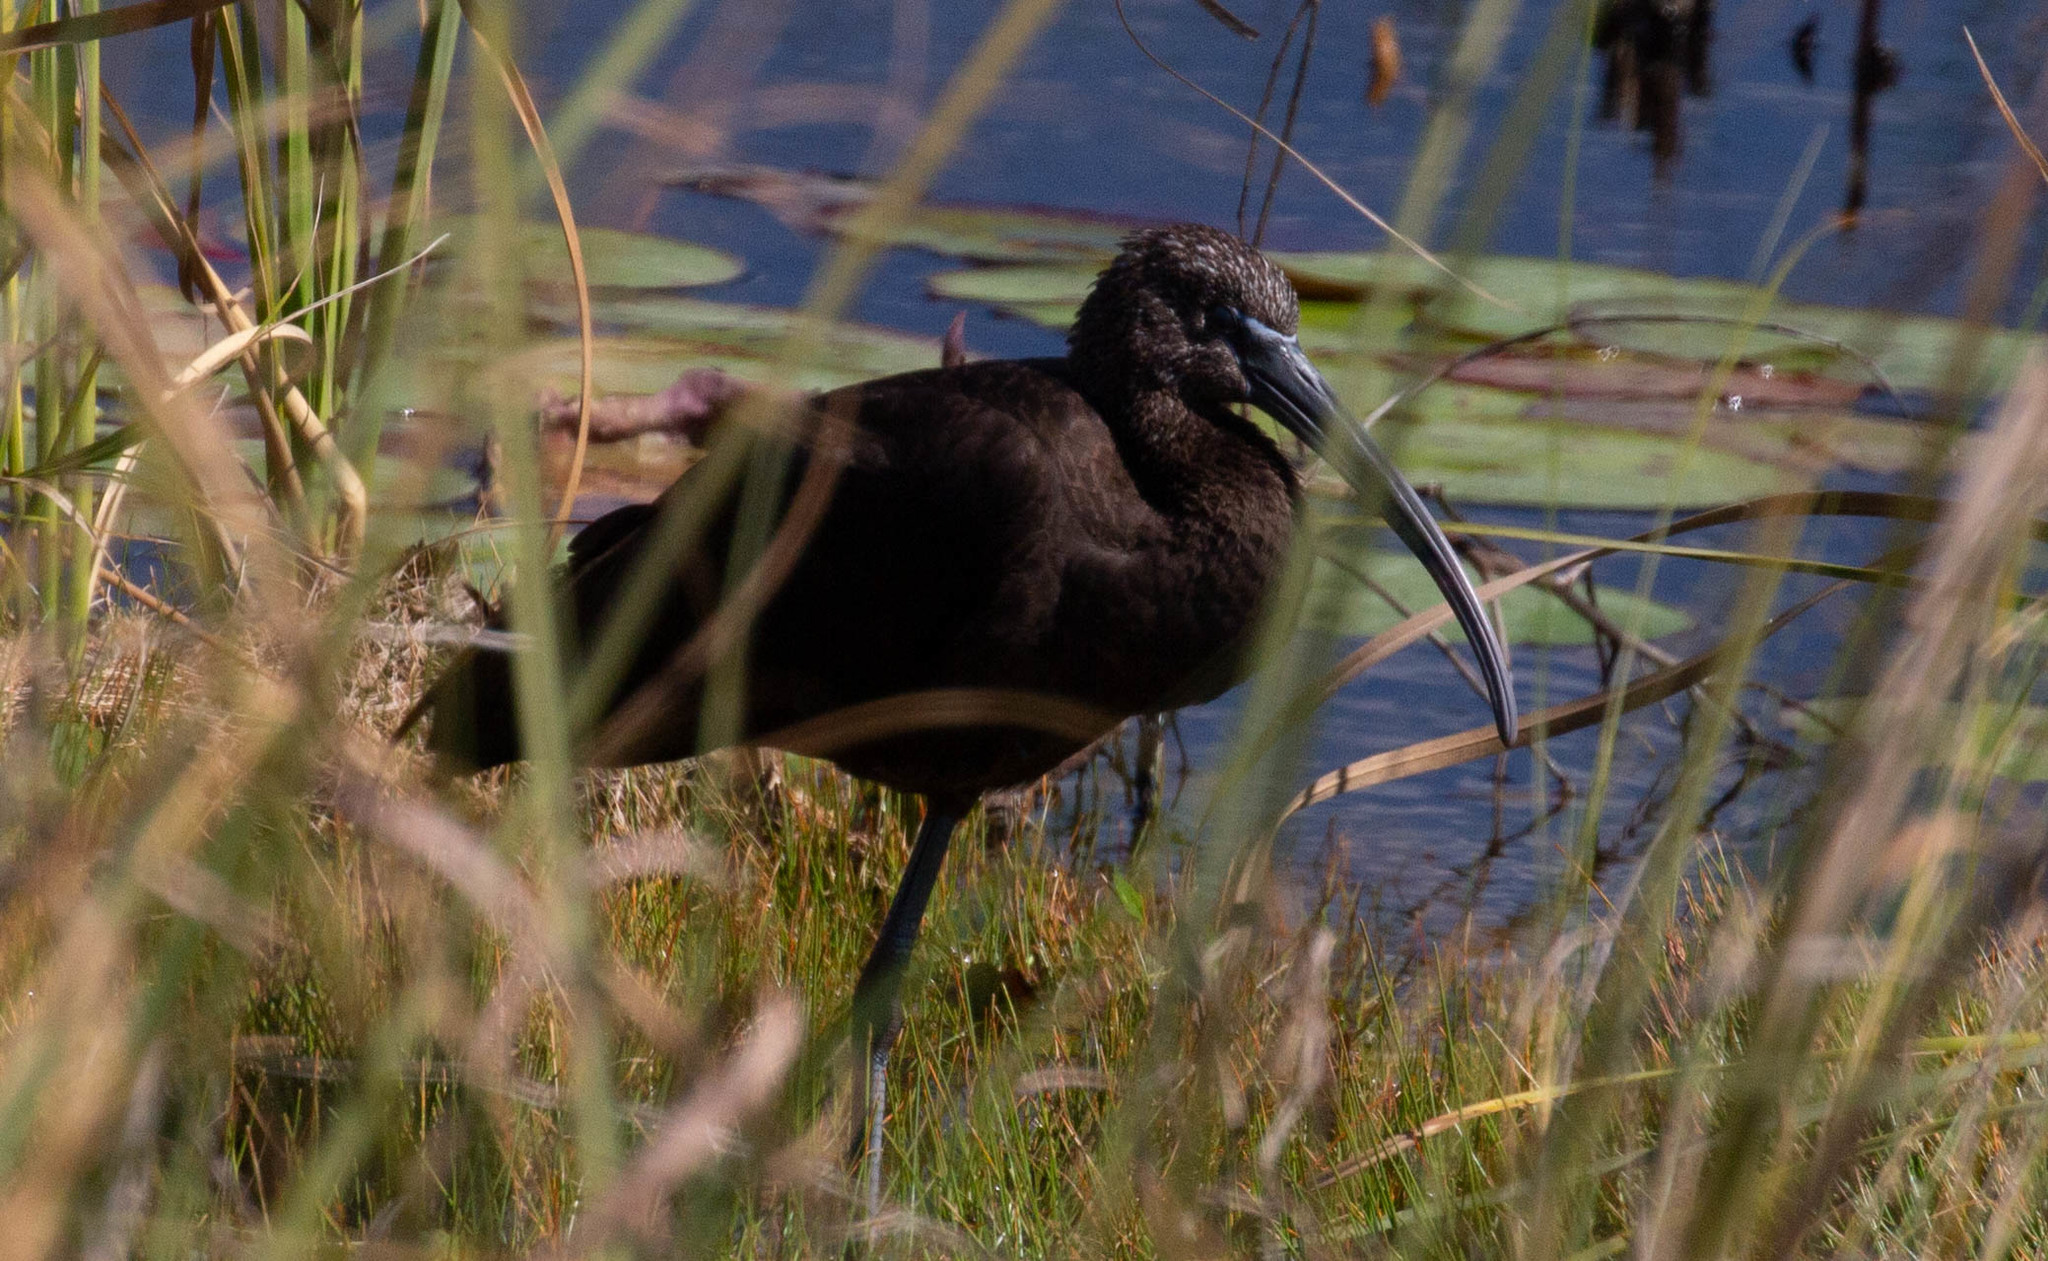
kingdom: Animalia
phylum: Chordata
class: Aves
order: Pelecaniformes
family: Threskiornithidae
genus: Plegadis
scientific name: Plegadis falcinellus
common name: Glossy ibis
